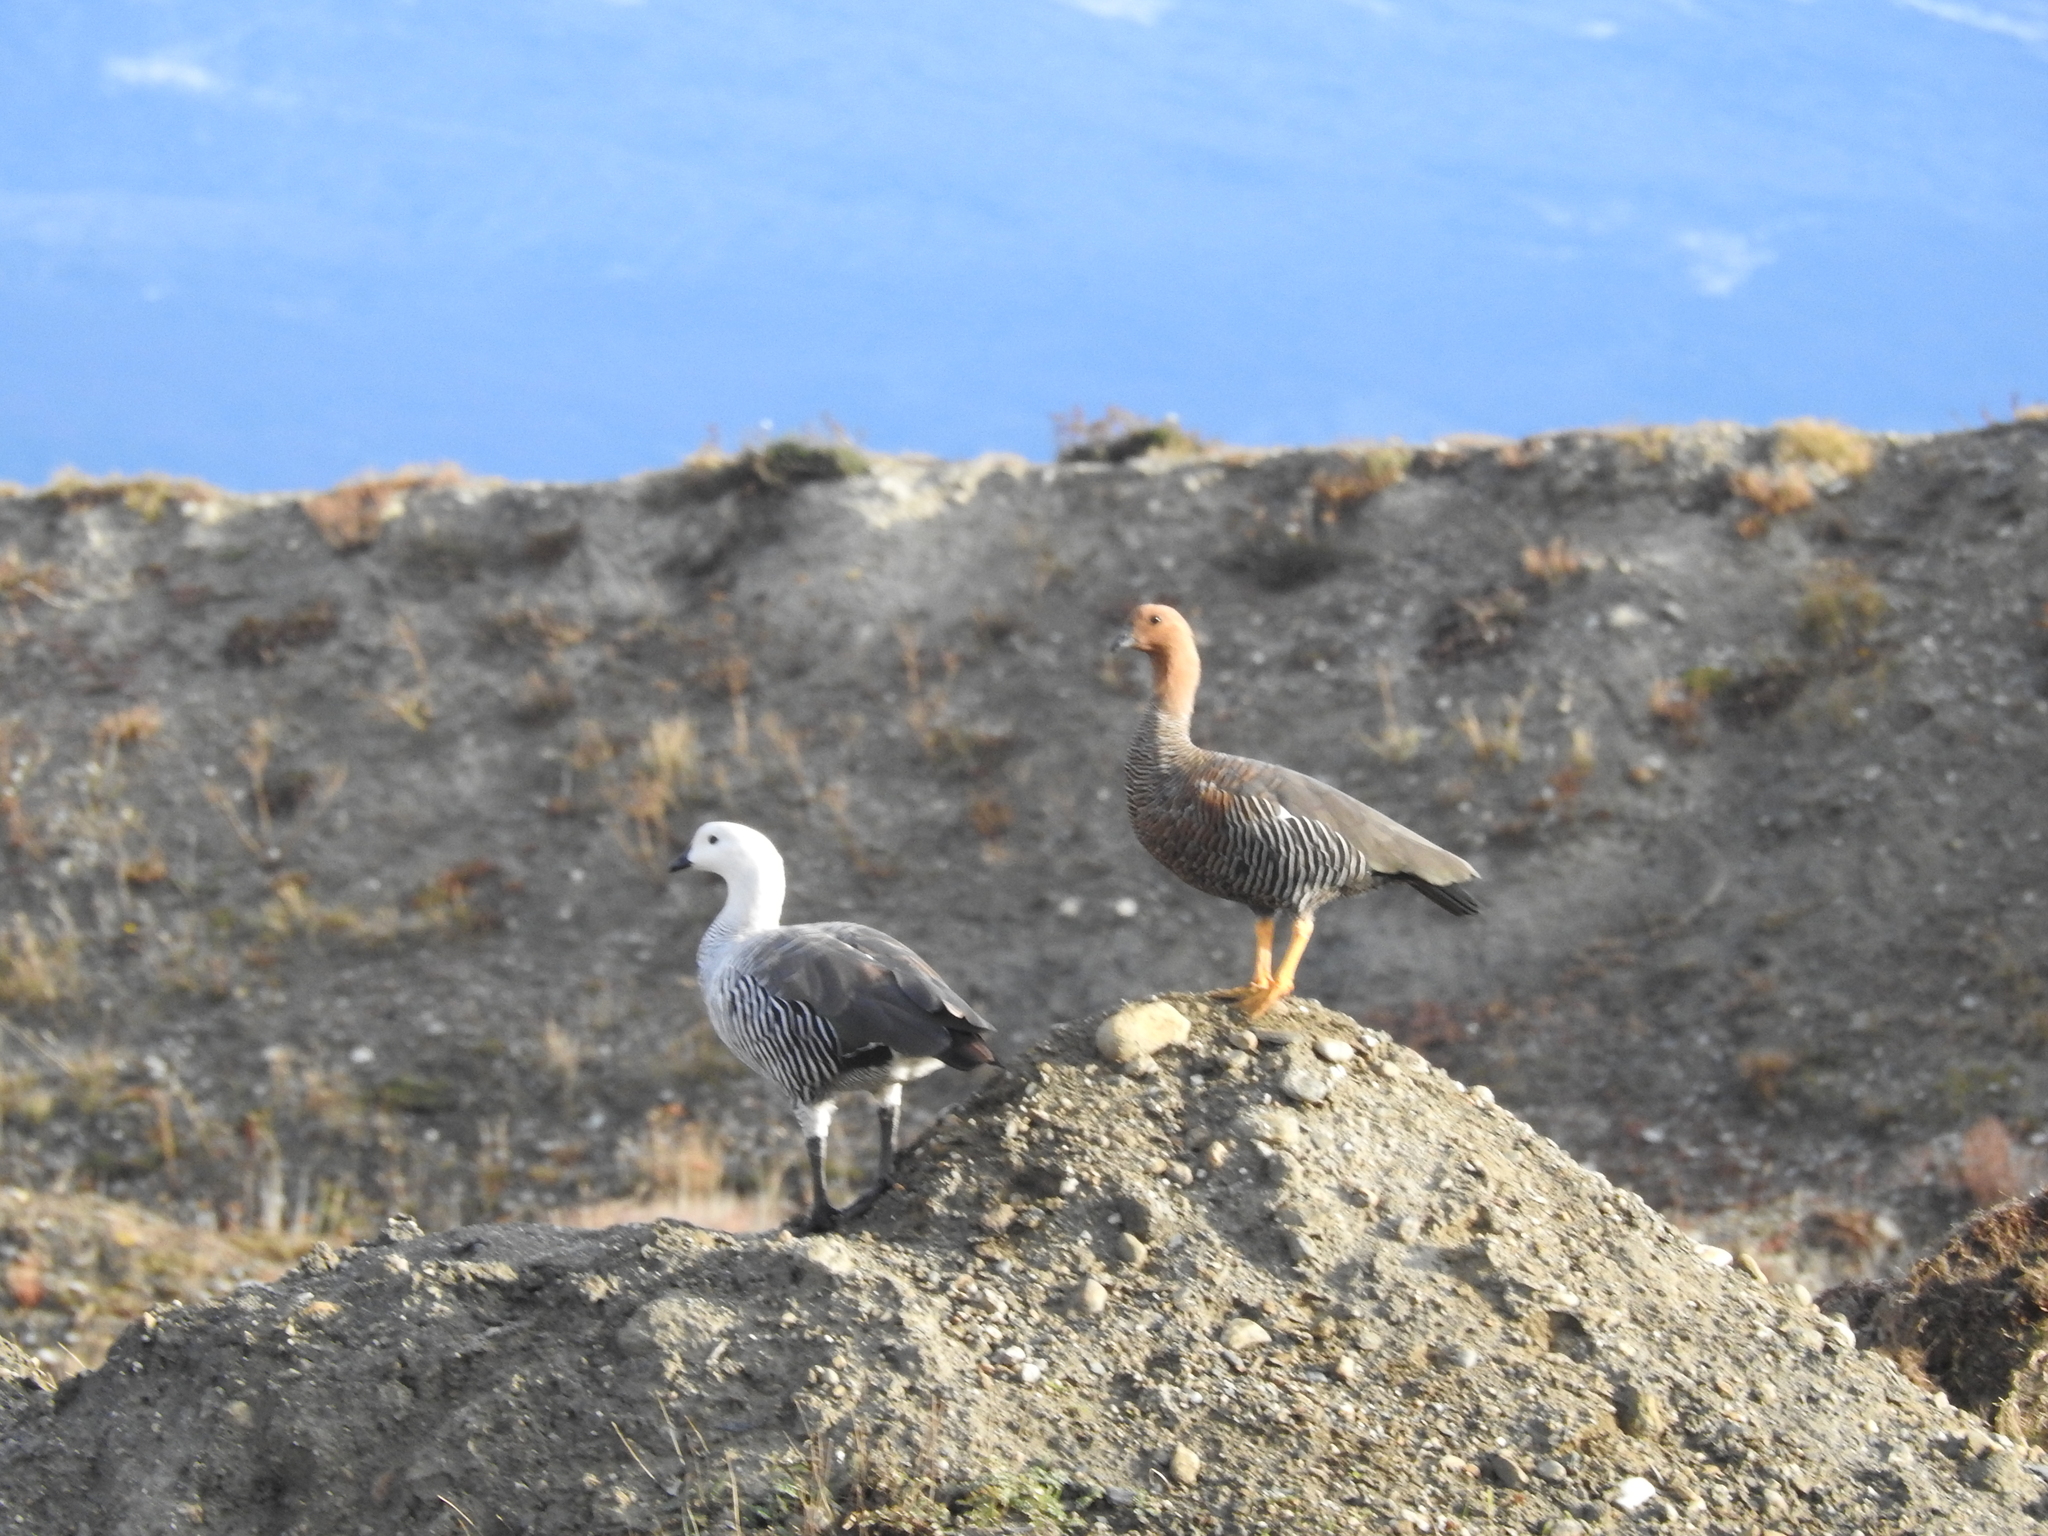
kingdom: Animalia
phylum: Chordata
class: Aves
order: Anseriformes
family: Anatidae
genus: Chloephaga
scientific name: Chloephaga picta
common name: Upland goose
